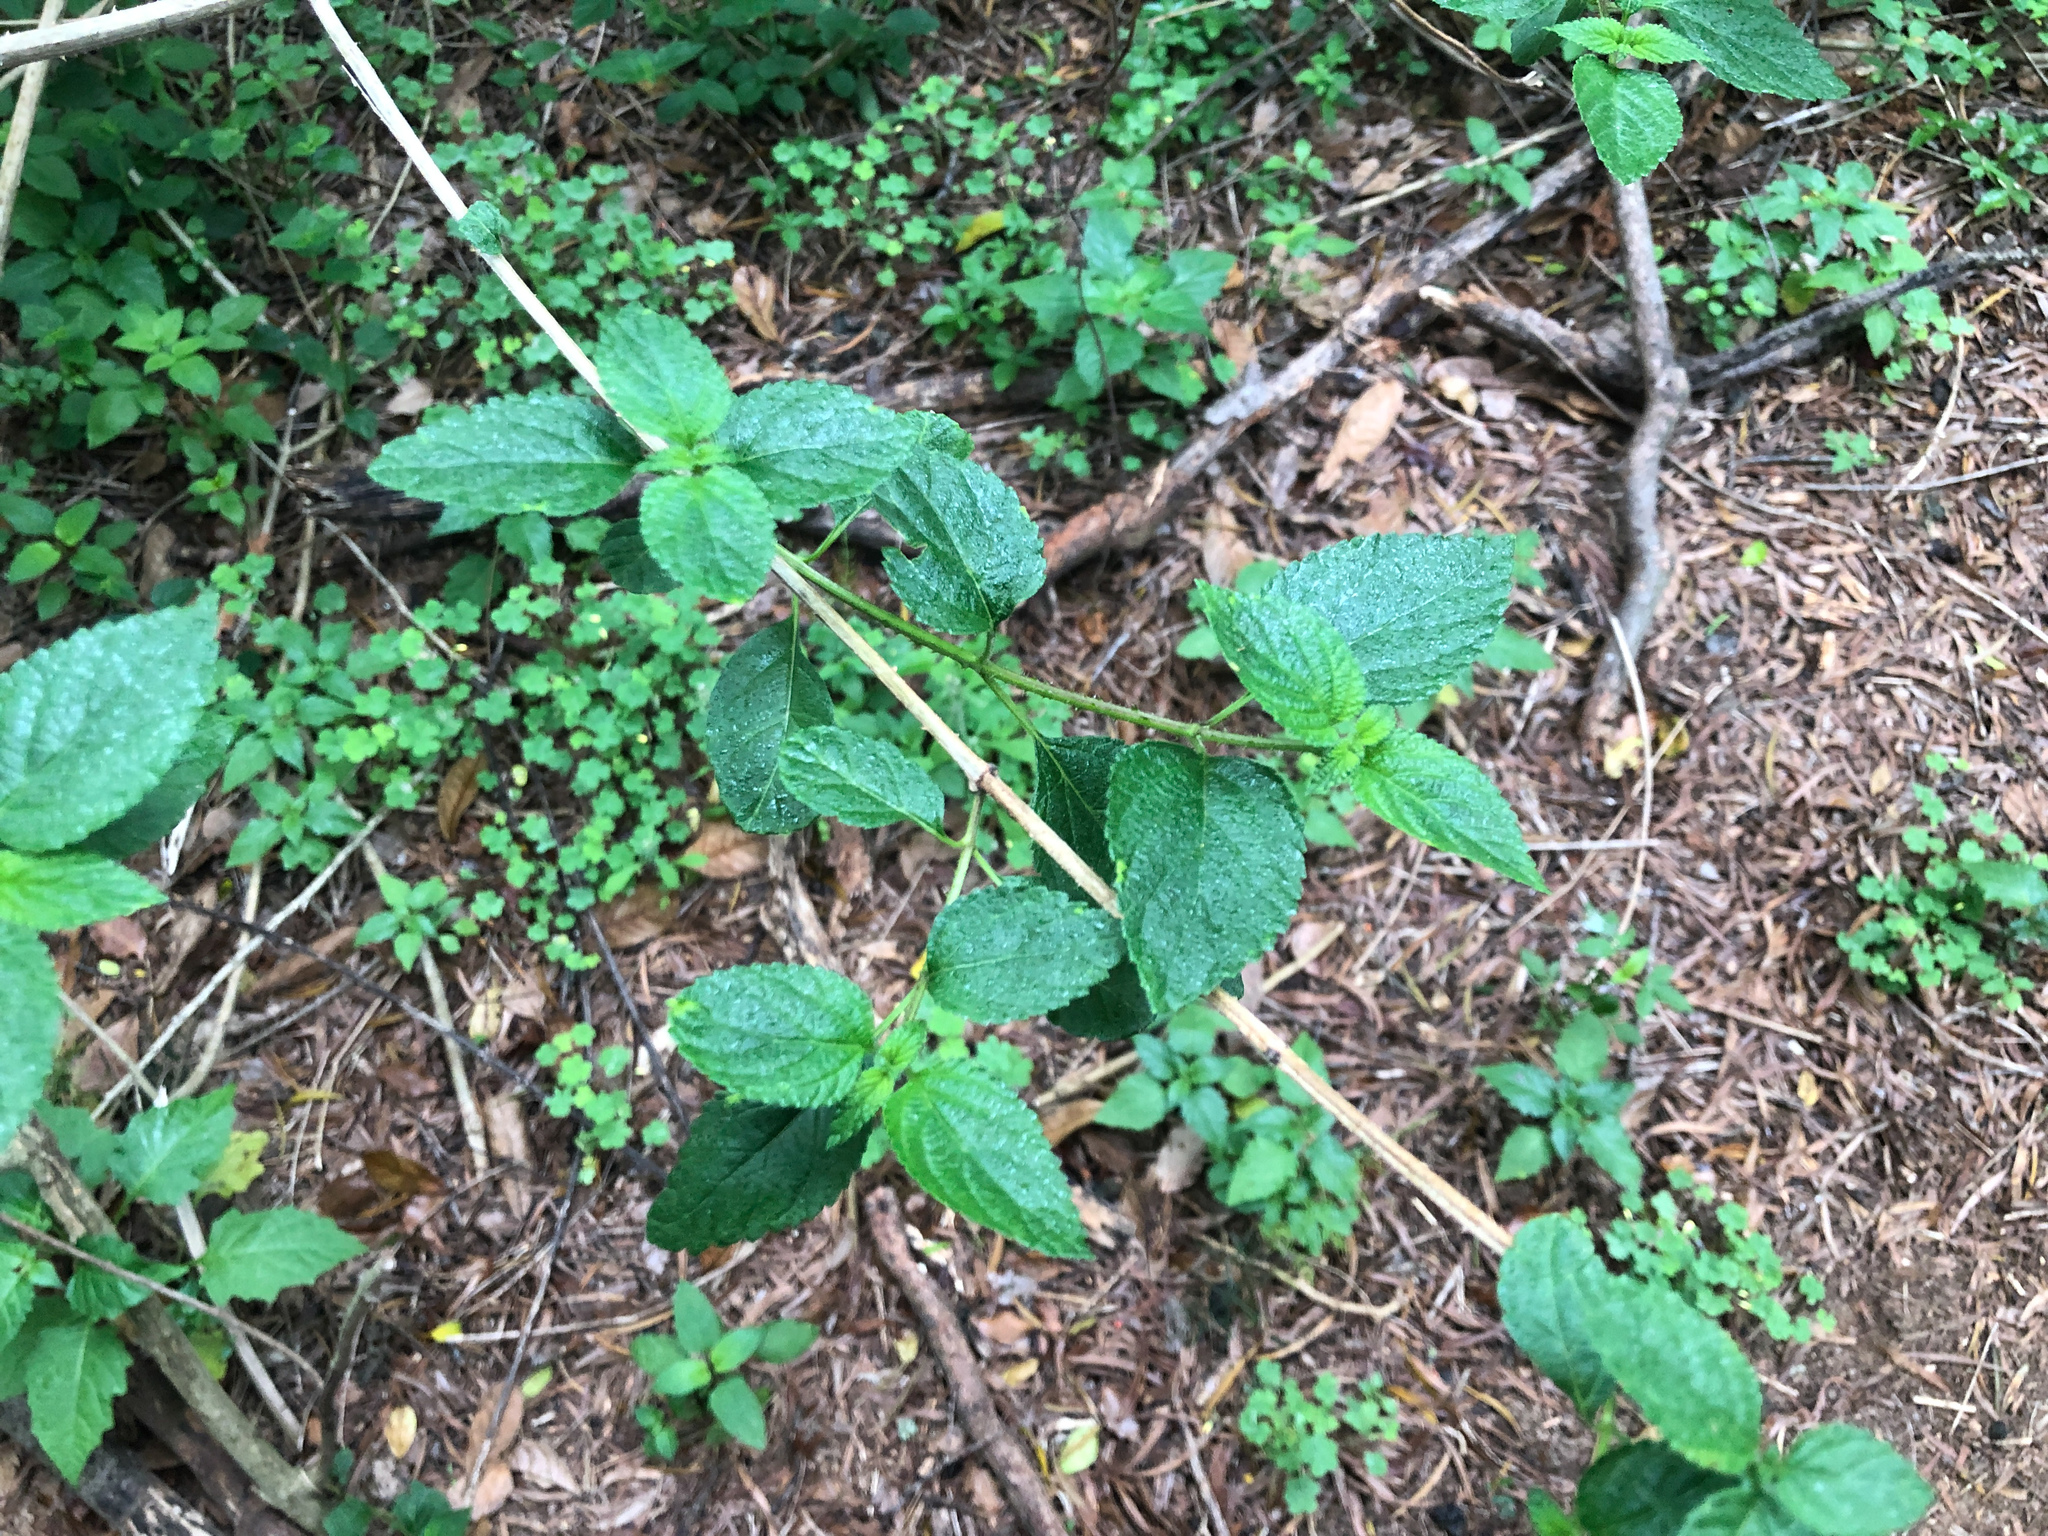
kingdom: Plantae
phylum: Tracheophyta
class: Magnoliopsida
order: Lamiales
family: Verbenaceae
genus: Lantana
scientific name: Lantana camara
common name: Lantana
